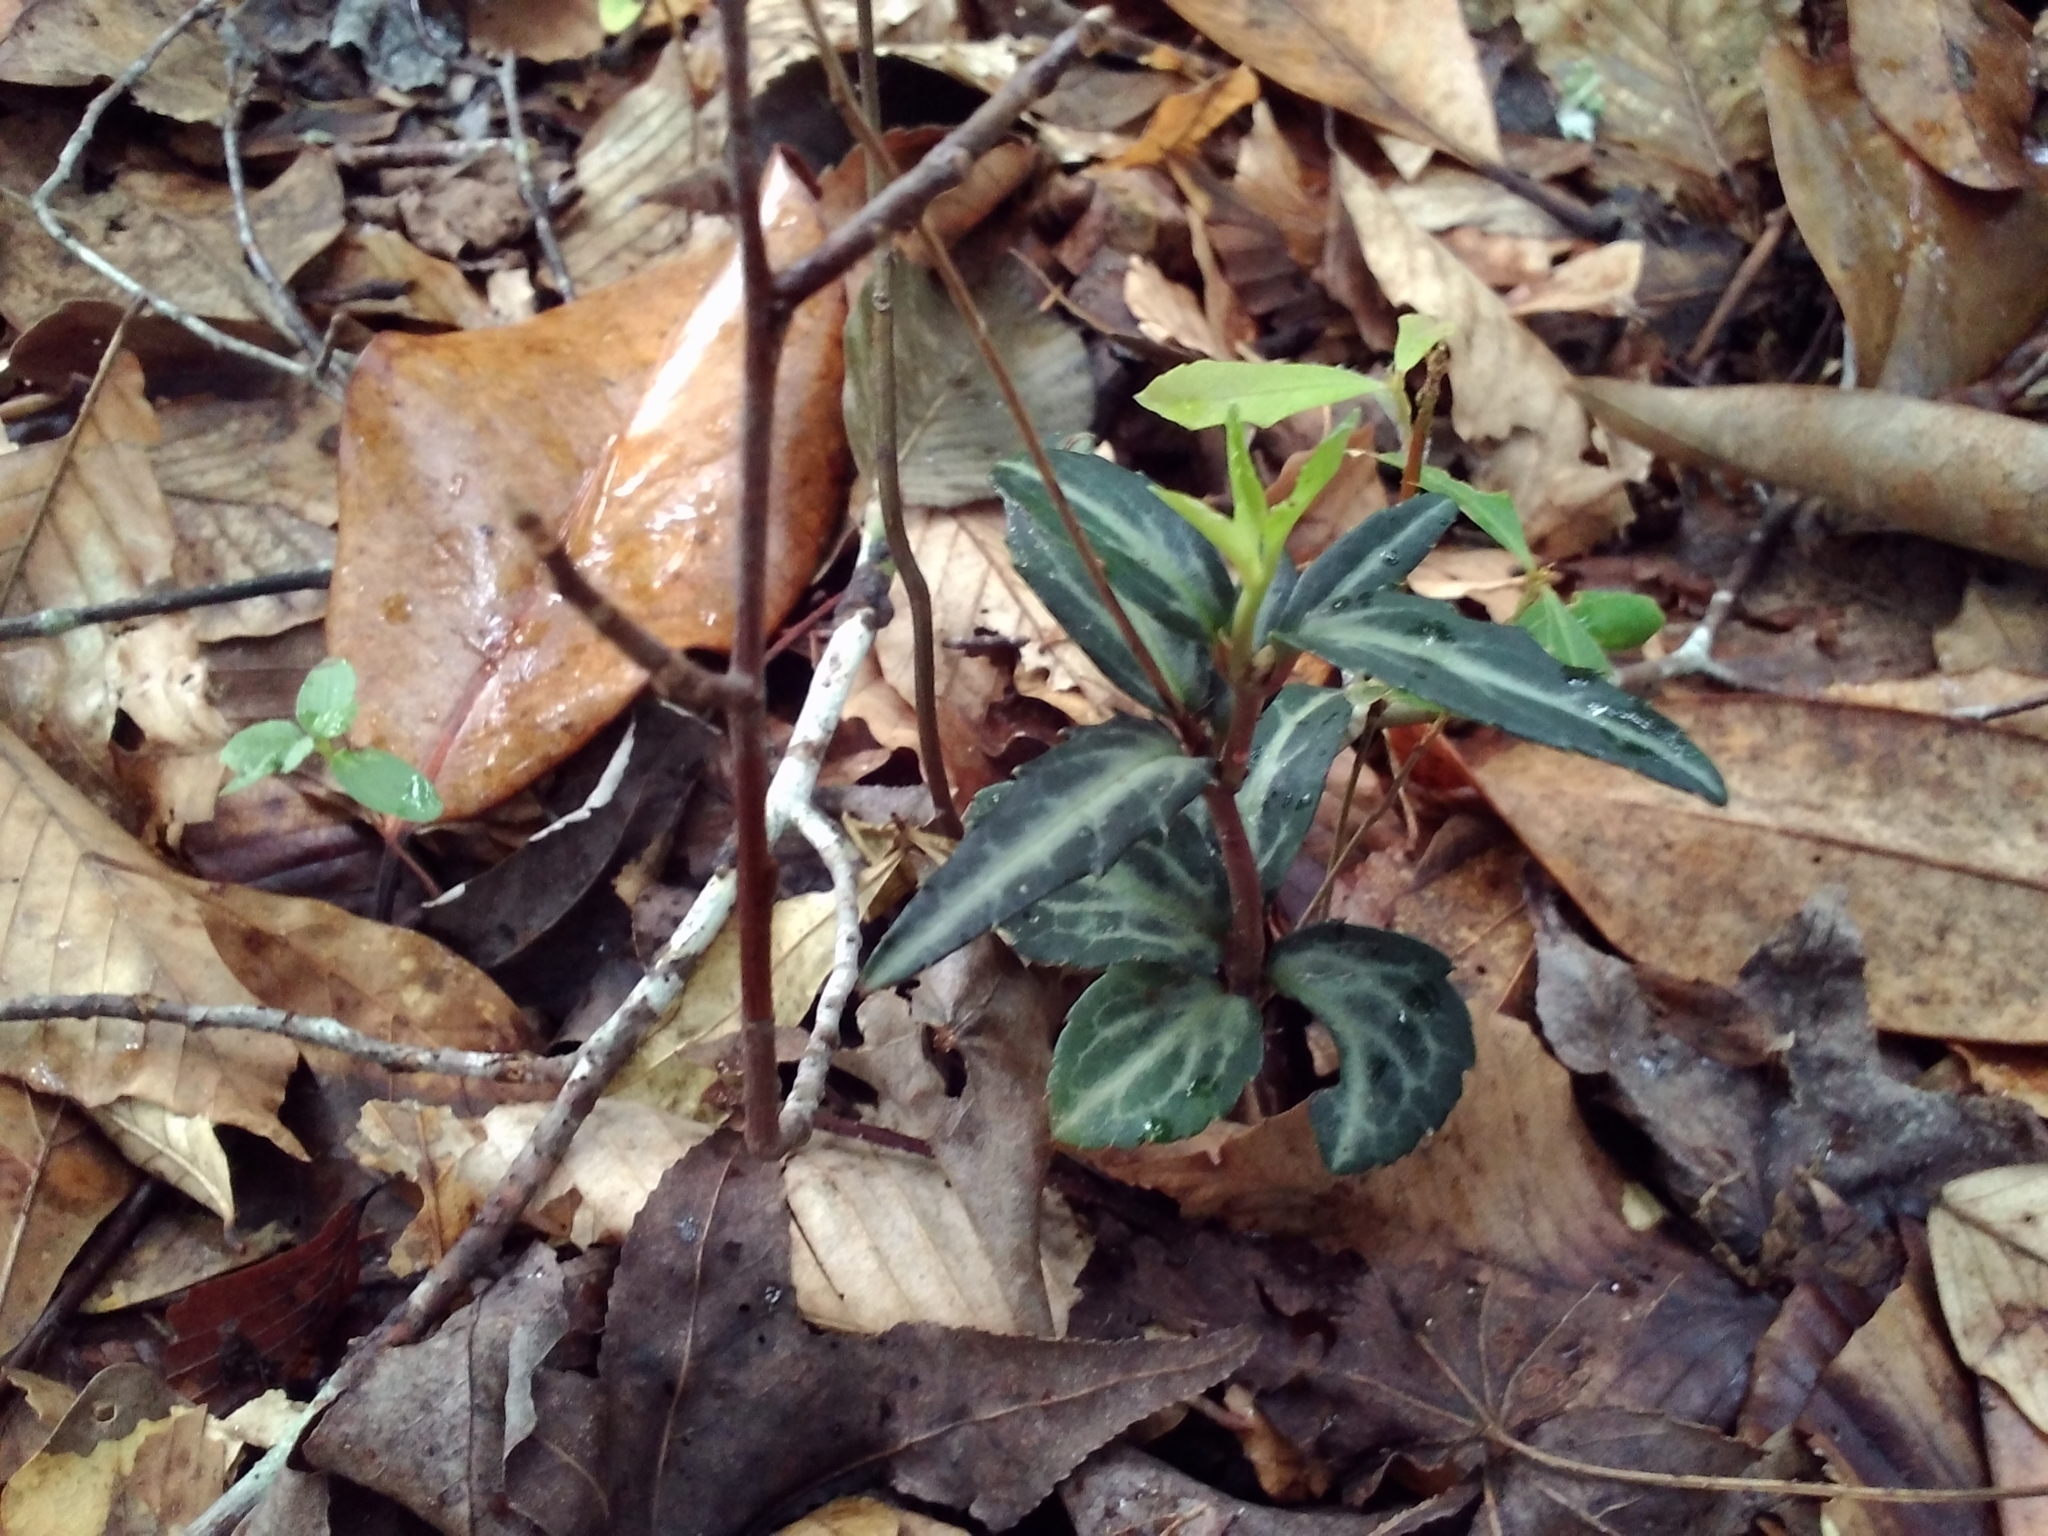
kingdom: Plantae
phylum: Tracheophyta
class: Magnoliopsida
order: Ericales
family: Ericaceae
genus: Chimaphila
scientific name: Chimaphila maculata
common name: Spotted pipsissewa
